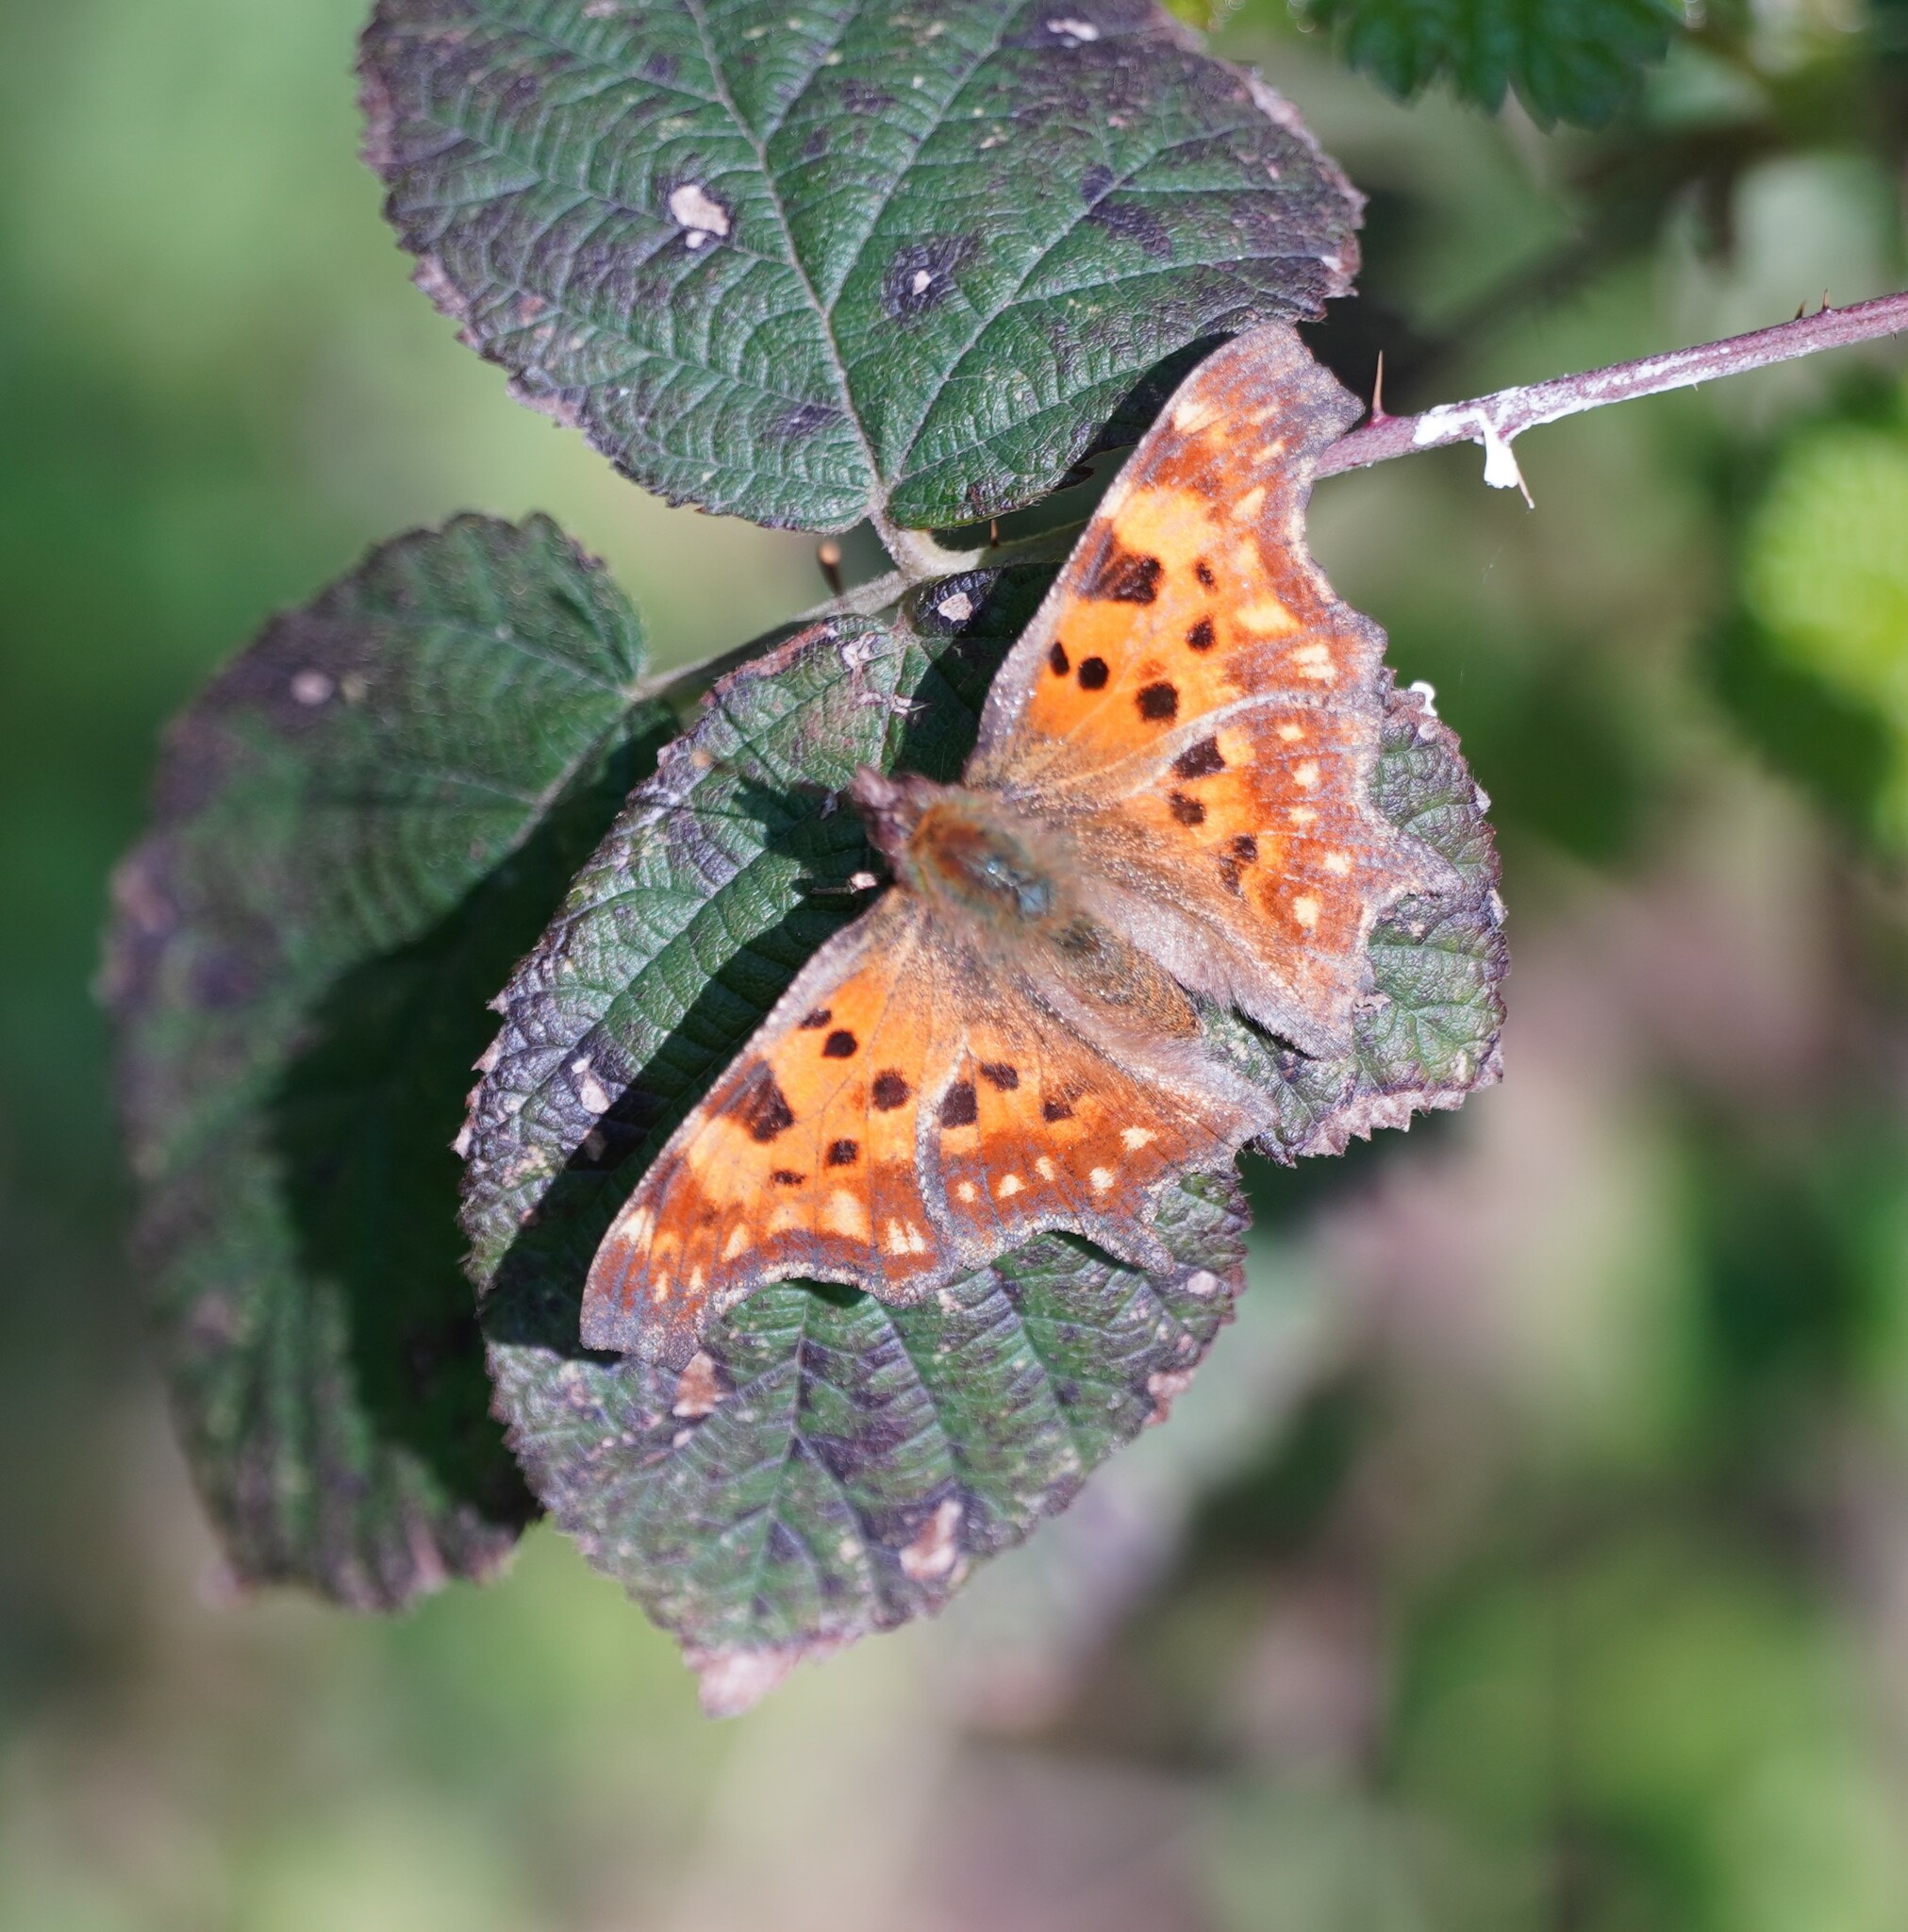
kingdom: Animalia
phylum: Arthropoda
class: Insecta
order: Lepidoptera
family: Nymphalidae
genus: Polygonia
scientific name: Polygonia c-album
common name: Comma
